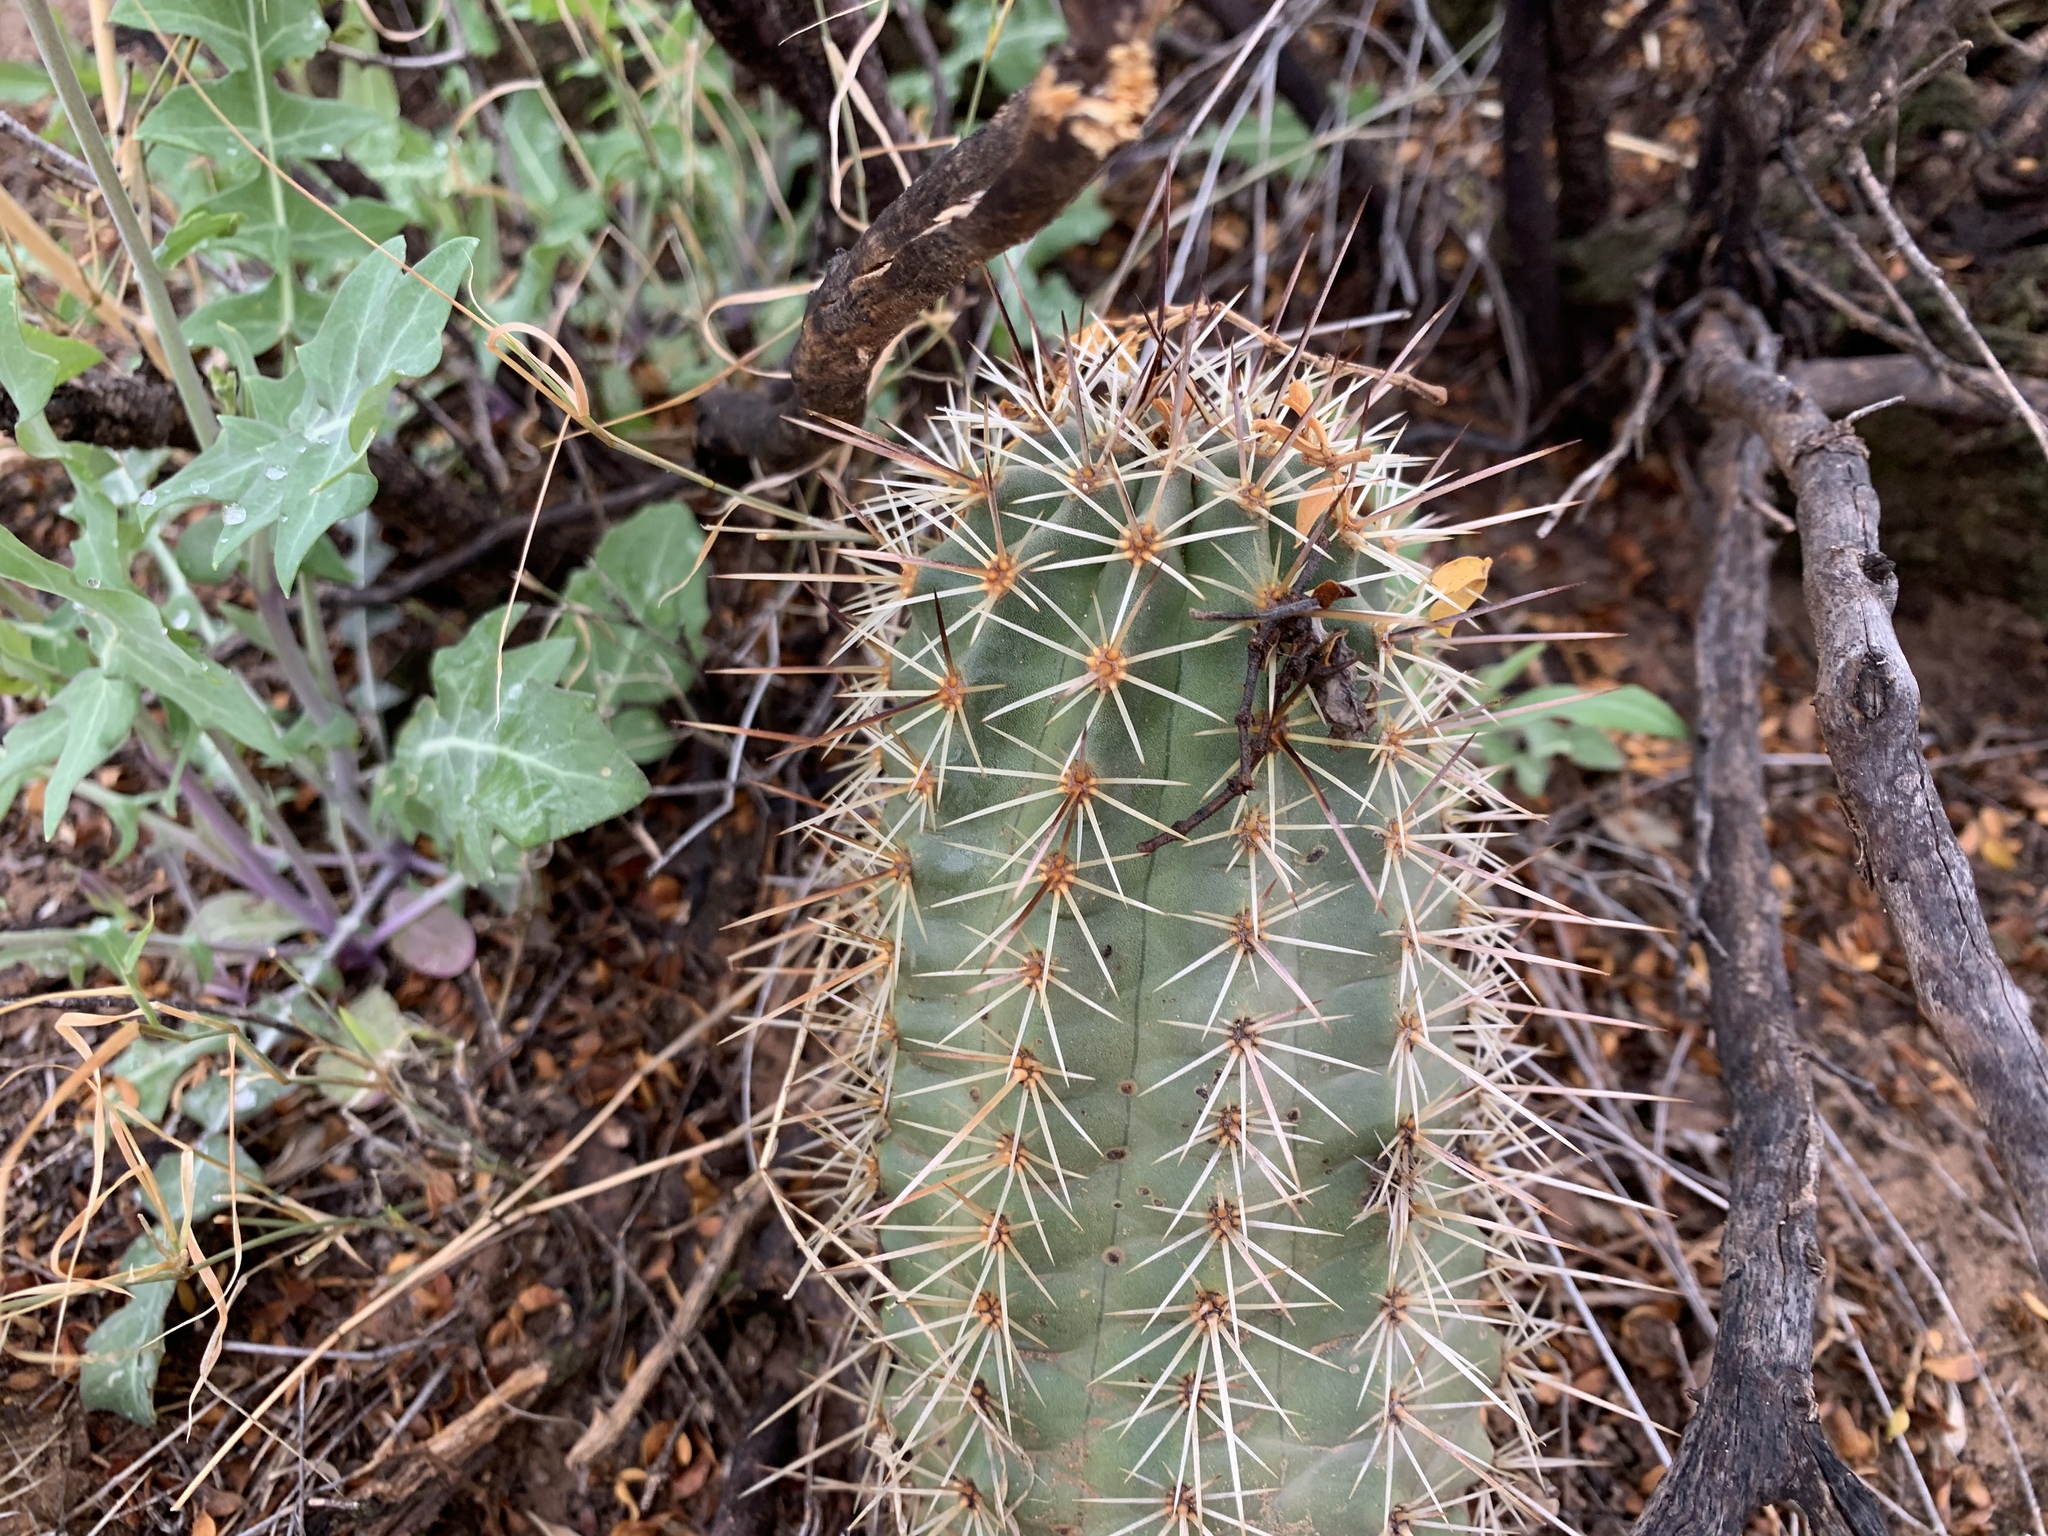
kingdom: Plantae
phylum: Tracheophyta
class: Magnoliopsida
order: Caryophyllales
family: Cactaceae
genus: Echinocereus
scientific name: Echinocereus coccineus
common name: Scarlet hedgehog cactus
